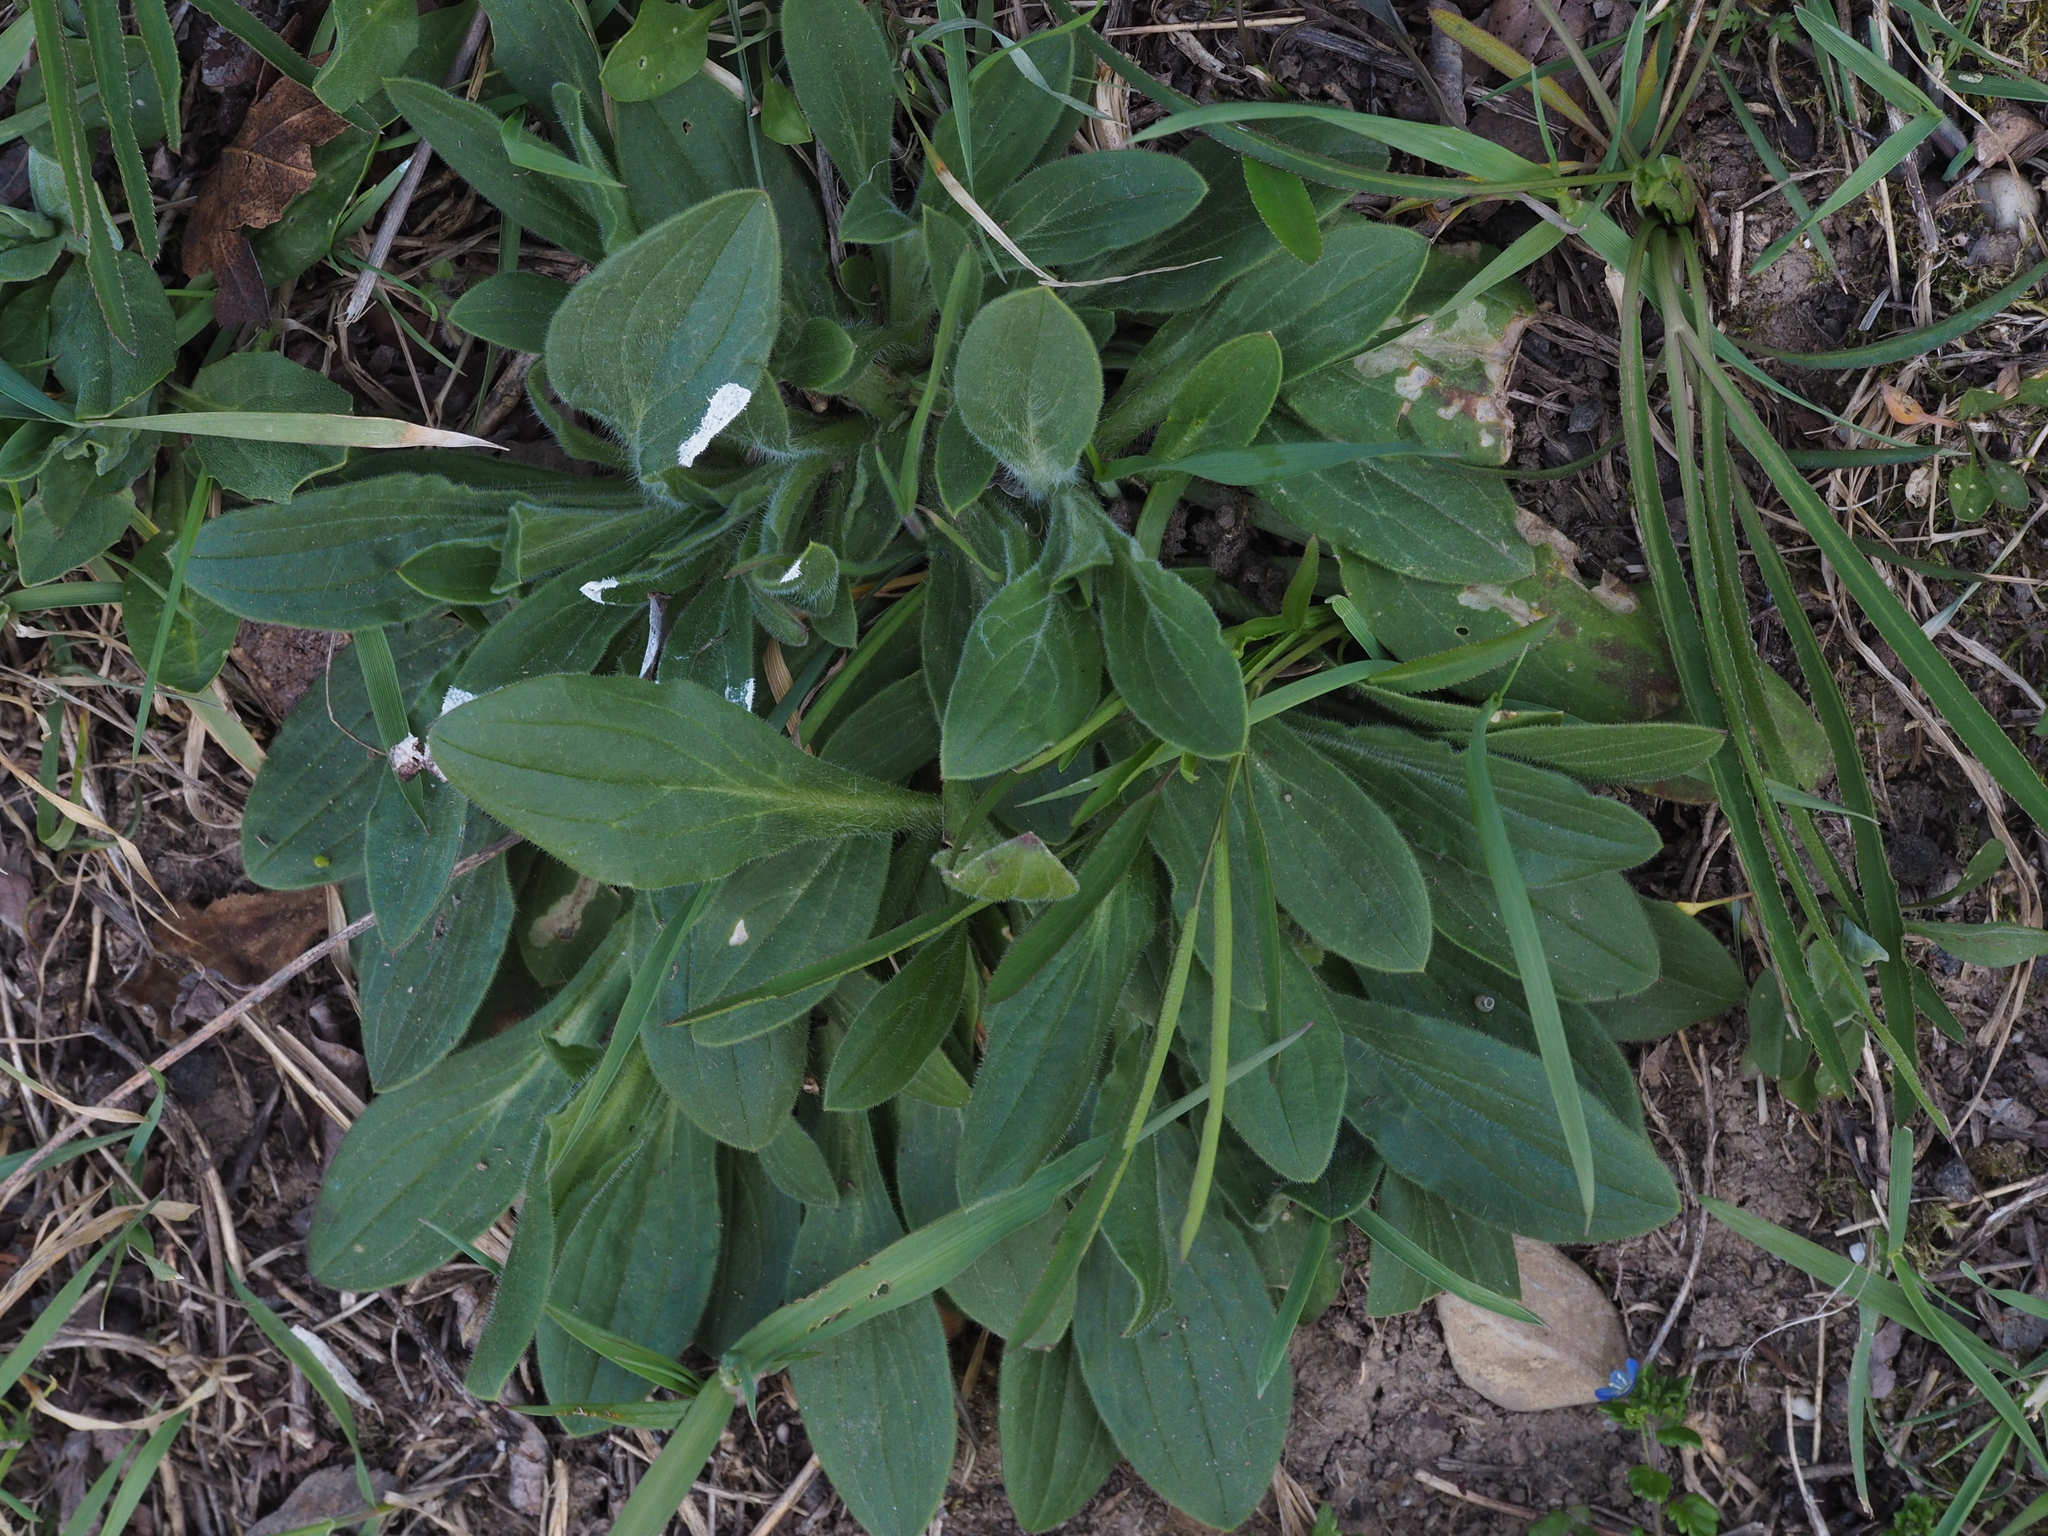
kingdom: Plantae
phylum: Tracheophyta
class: Magnoliopsida
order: Caryophyllales
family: Caryophyllaceae
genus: Silene
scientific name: Silene latifolia
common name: White campion
